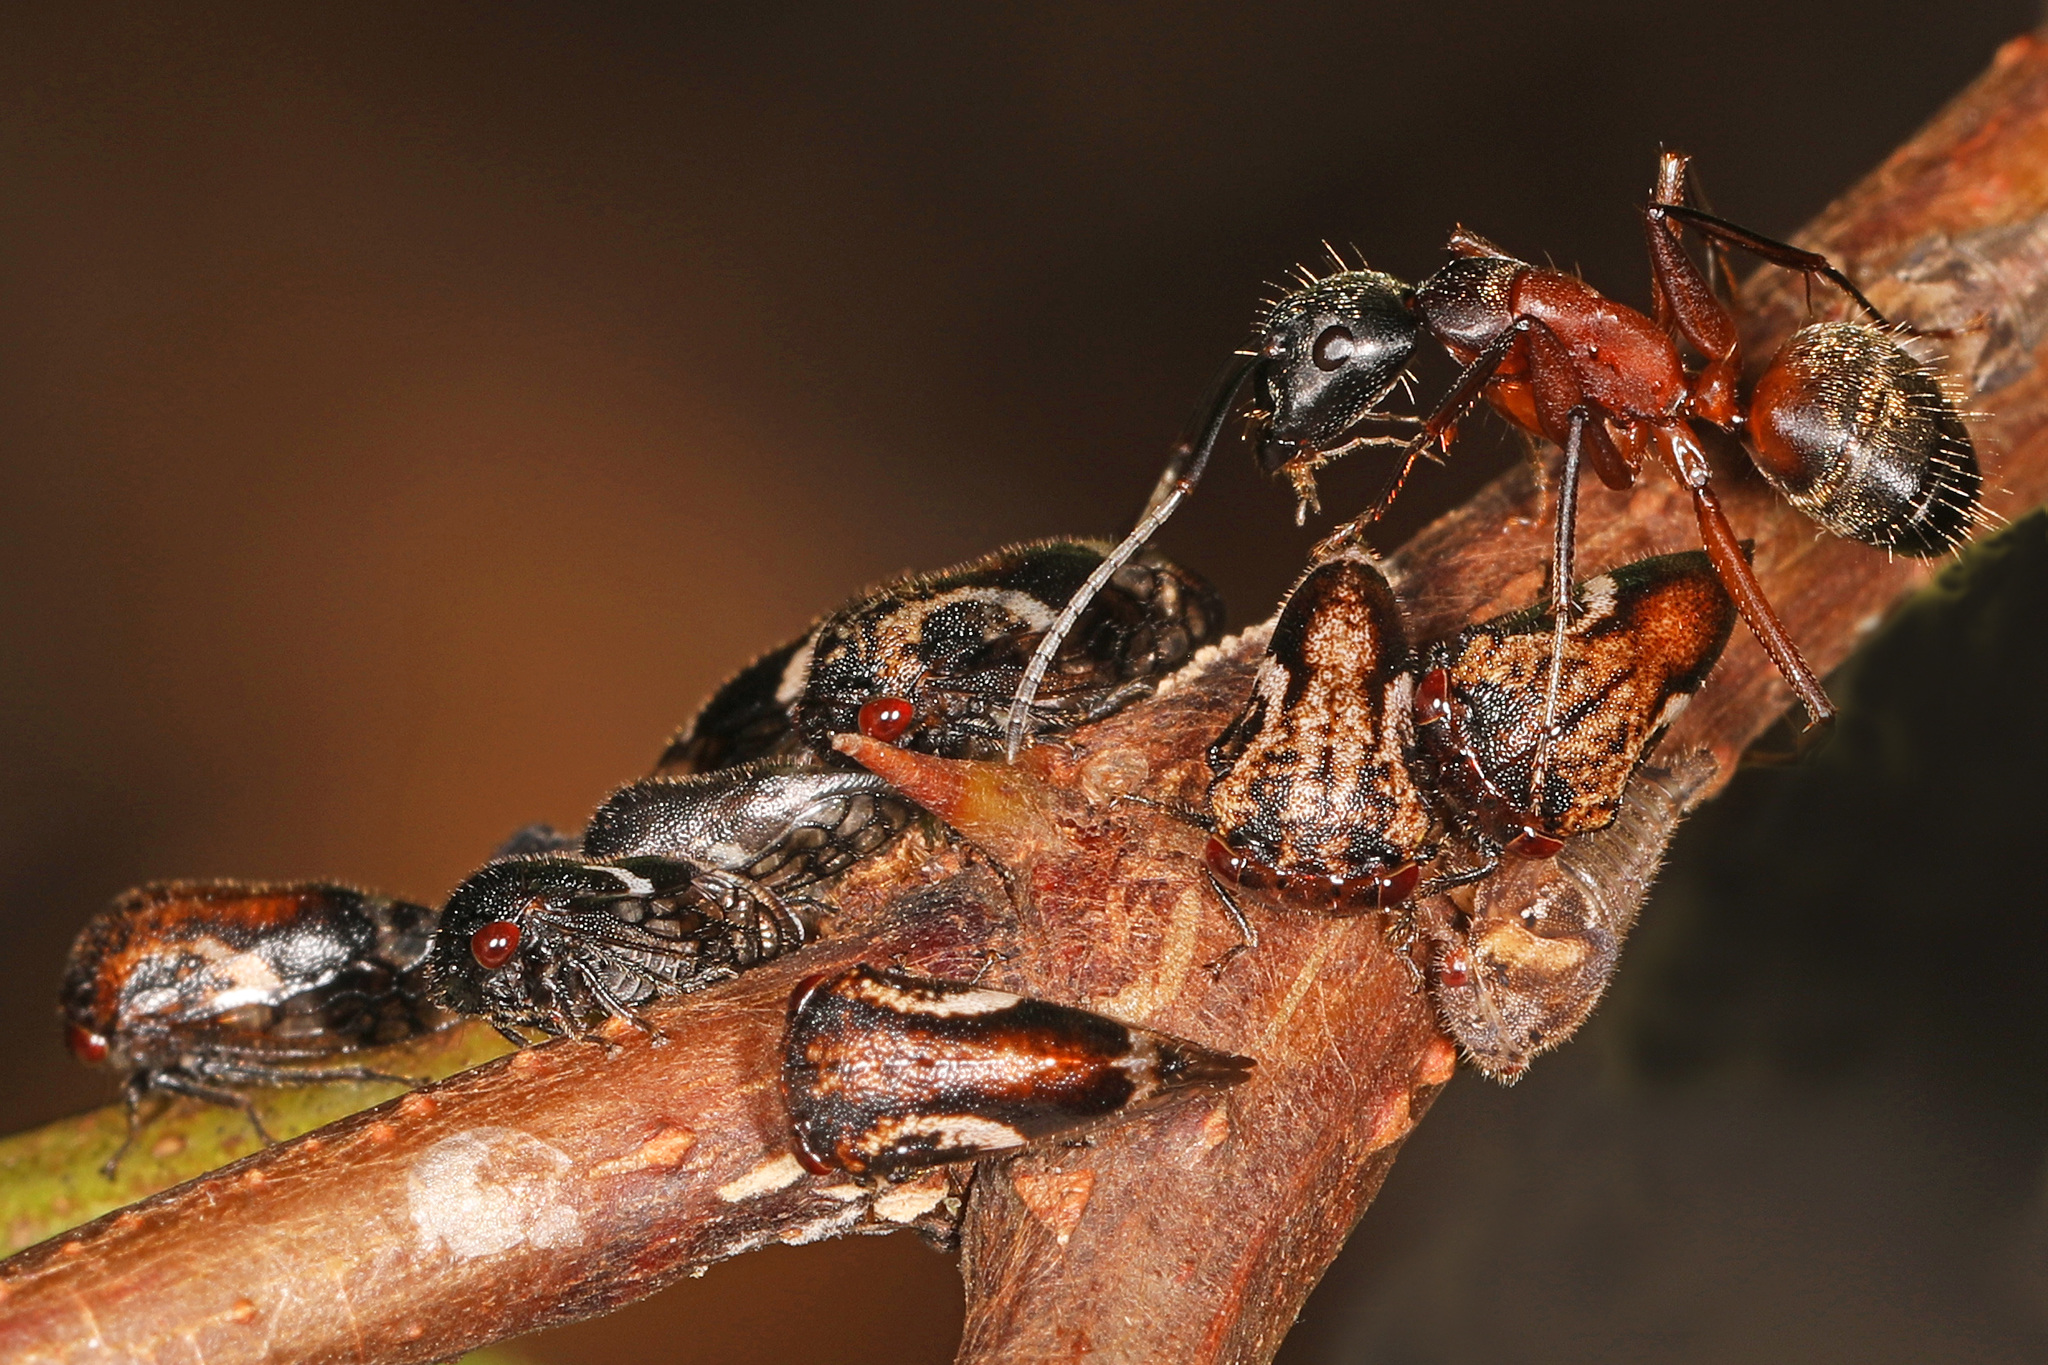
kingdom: Animalia
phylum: Arthropoda
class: Insecta
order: Hymenoptera
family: Formicidae
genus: Camponotus
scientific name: Camponotus chromaiodes
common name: Red carpenter ant
